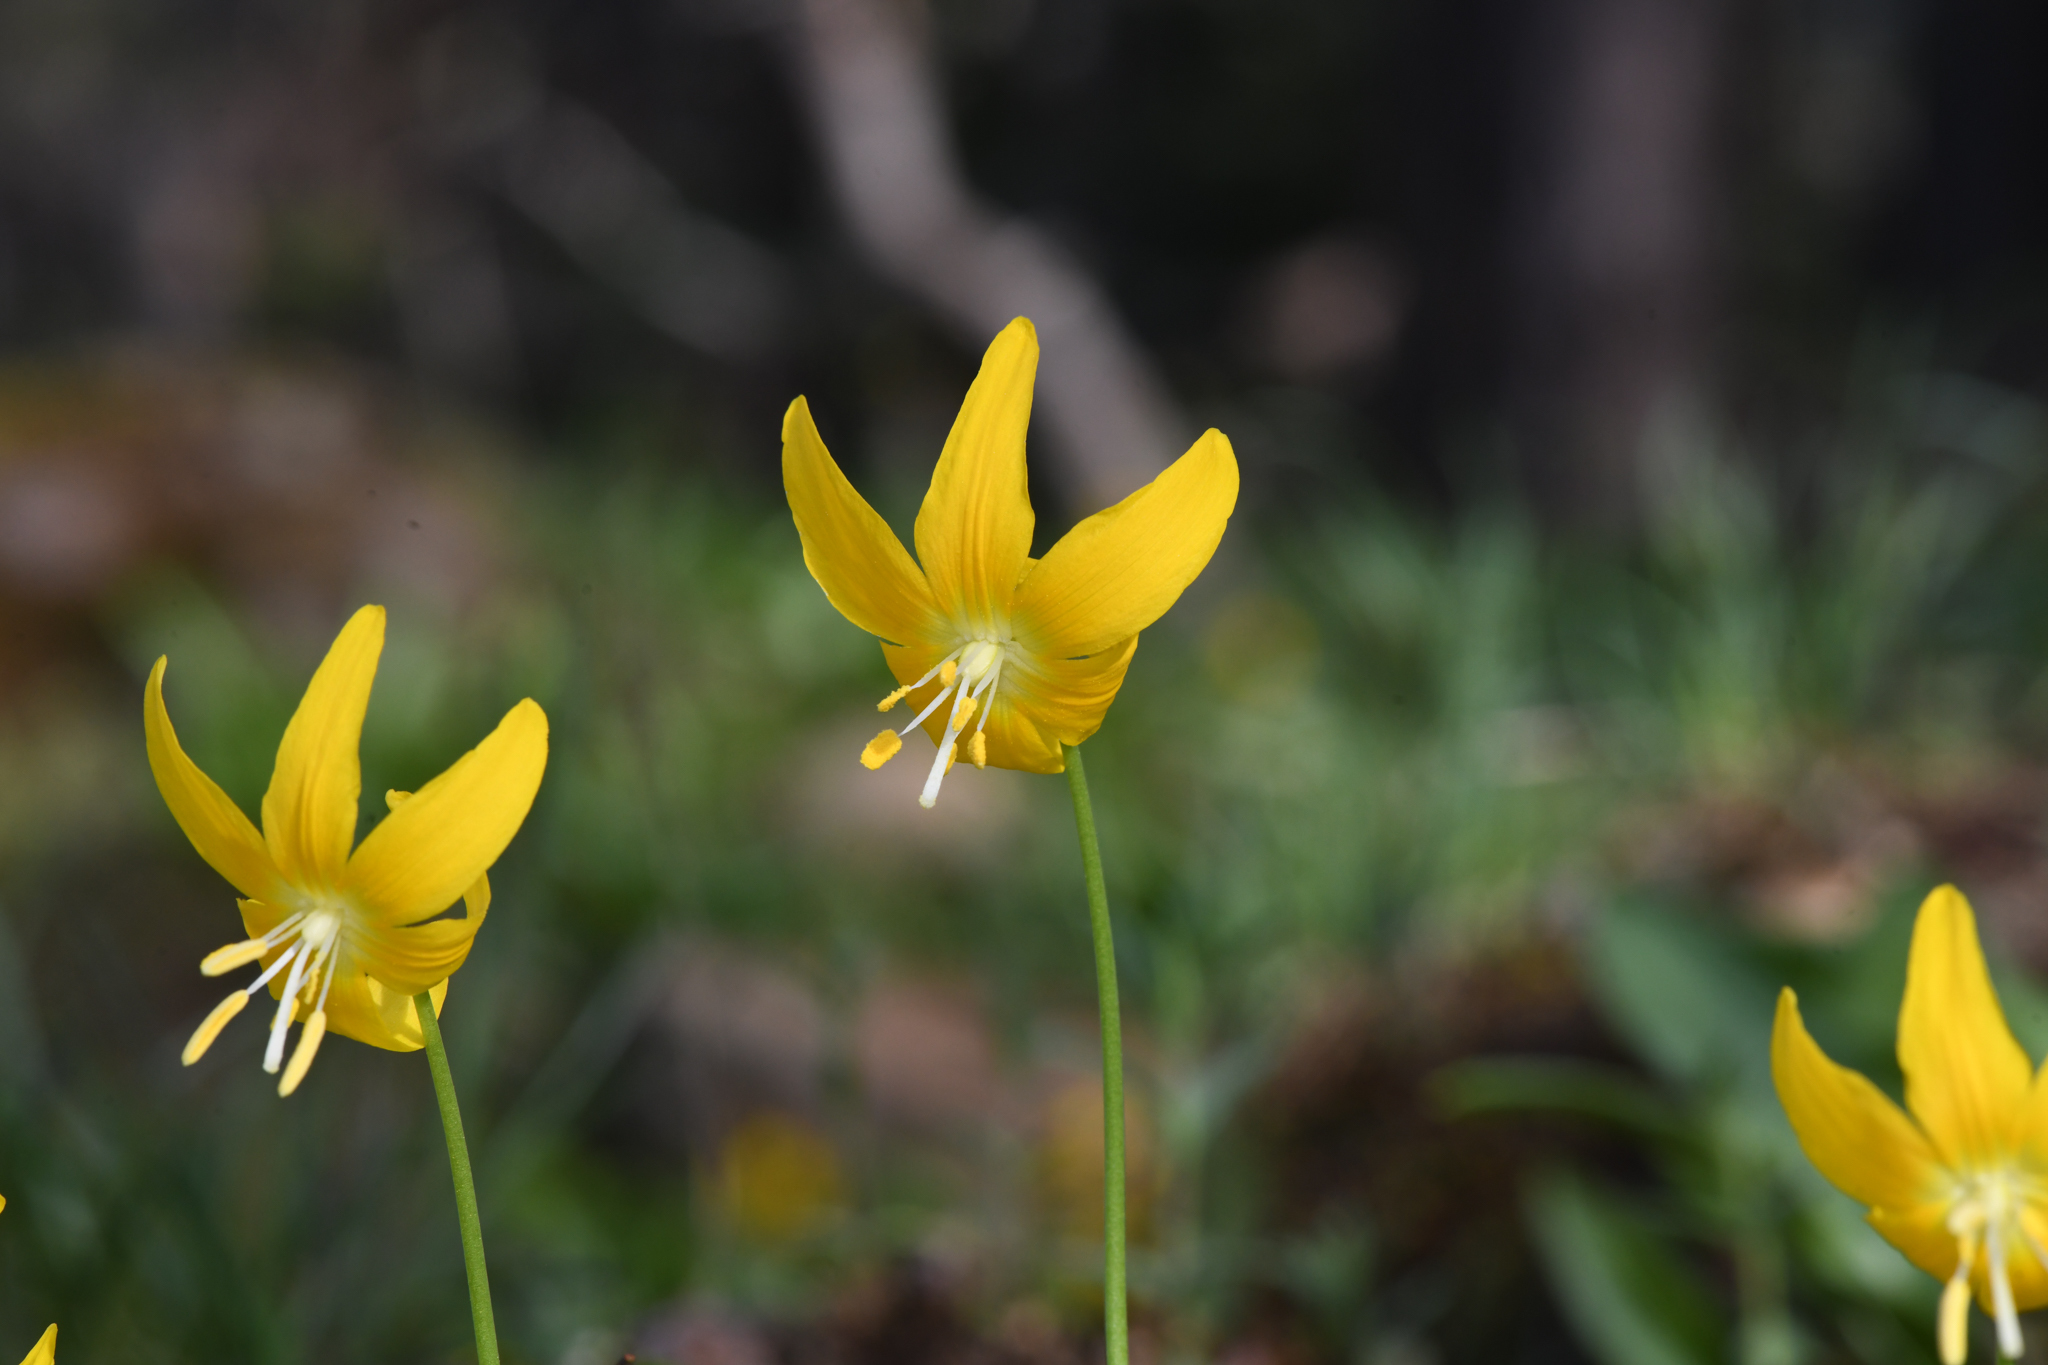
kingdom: Plantae
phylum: Tracheophyta
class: Liliopsida
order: Liliales
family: Liliaceae
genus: Erythronium
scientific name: Erythronium tuolumnense
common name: Tuolumne fawn-lily
